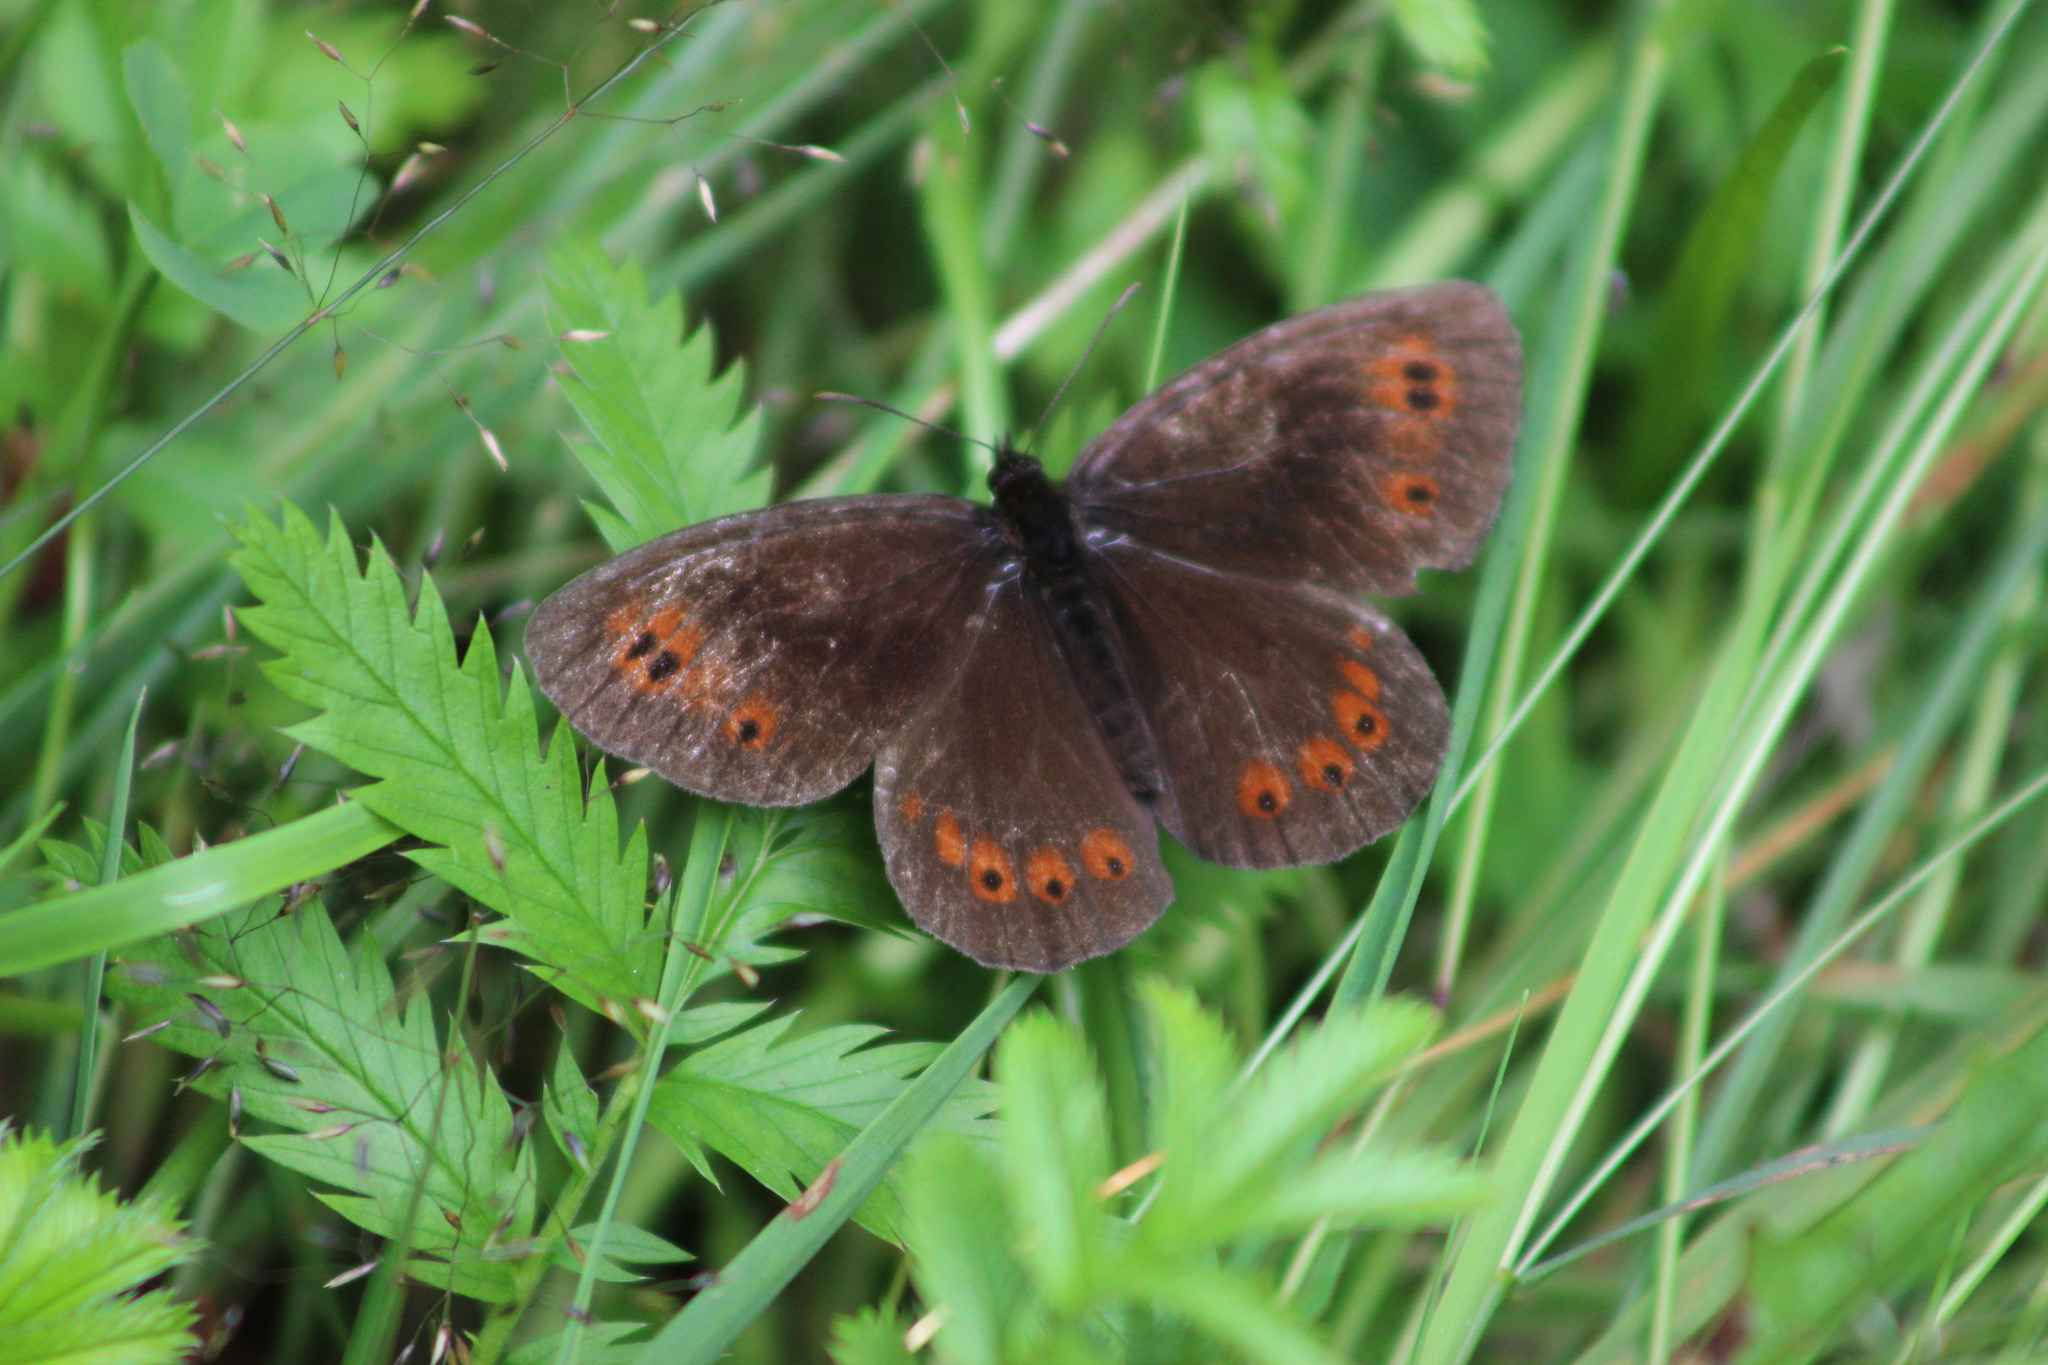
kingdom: Animalia
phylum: Arthropoda
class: Insecta
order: Lepidoptera
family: Nymphalidae
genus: Erebia
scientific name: Erebia ligea
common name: Arran brown
